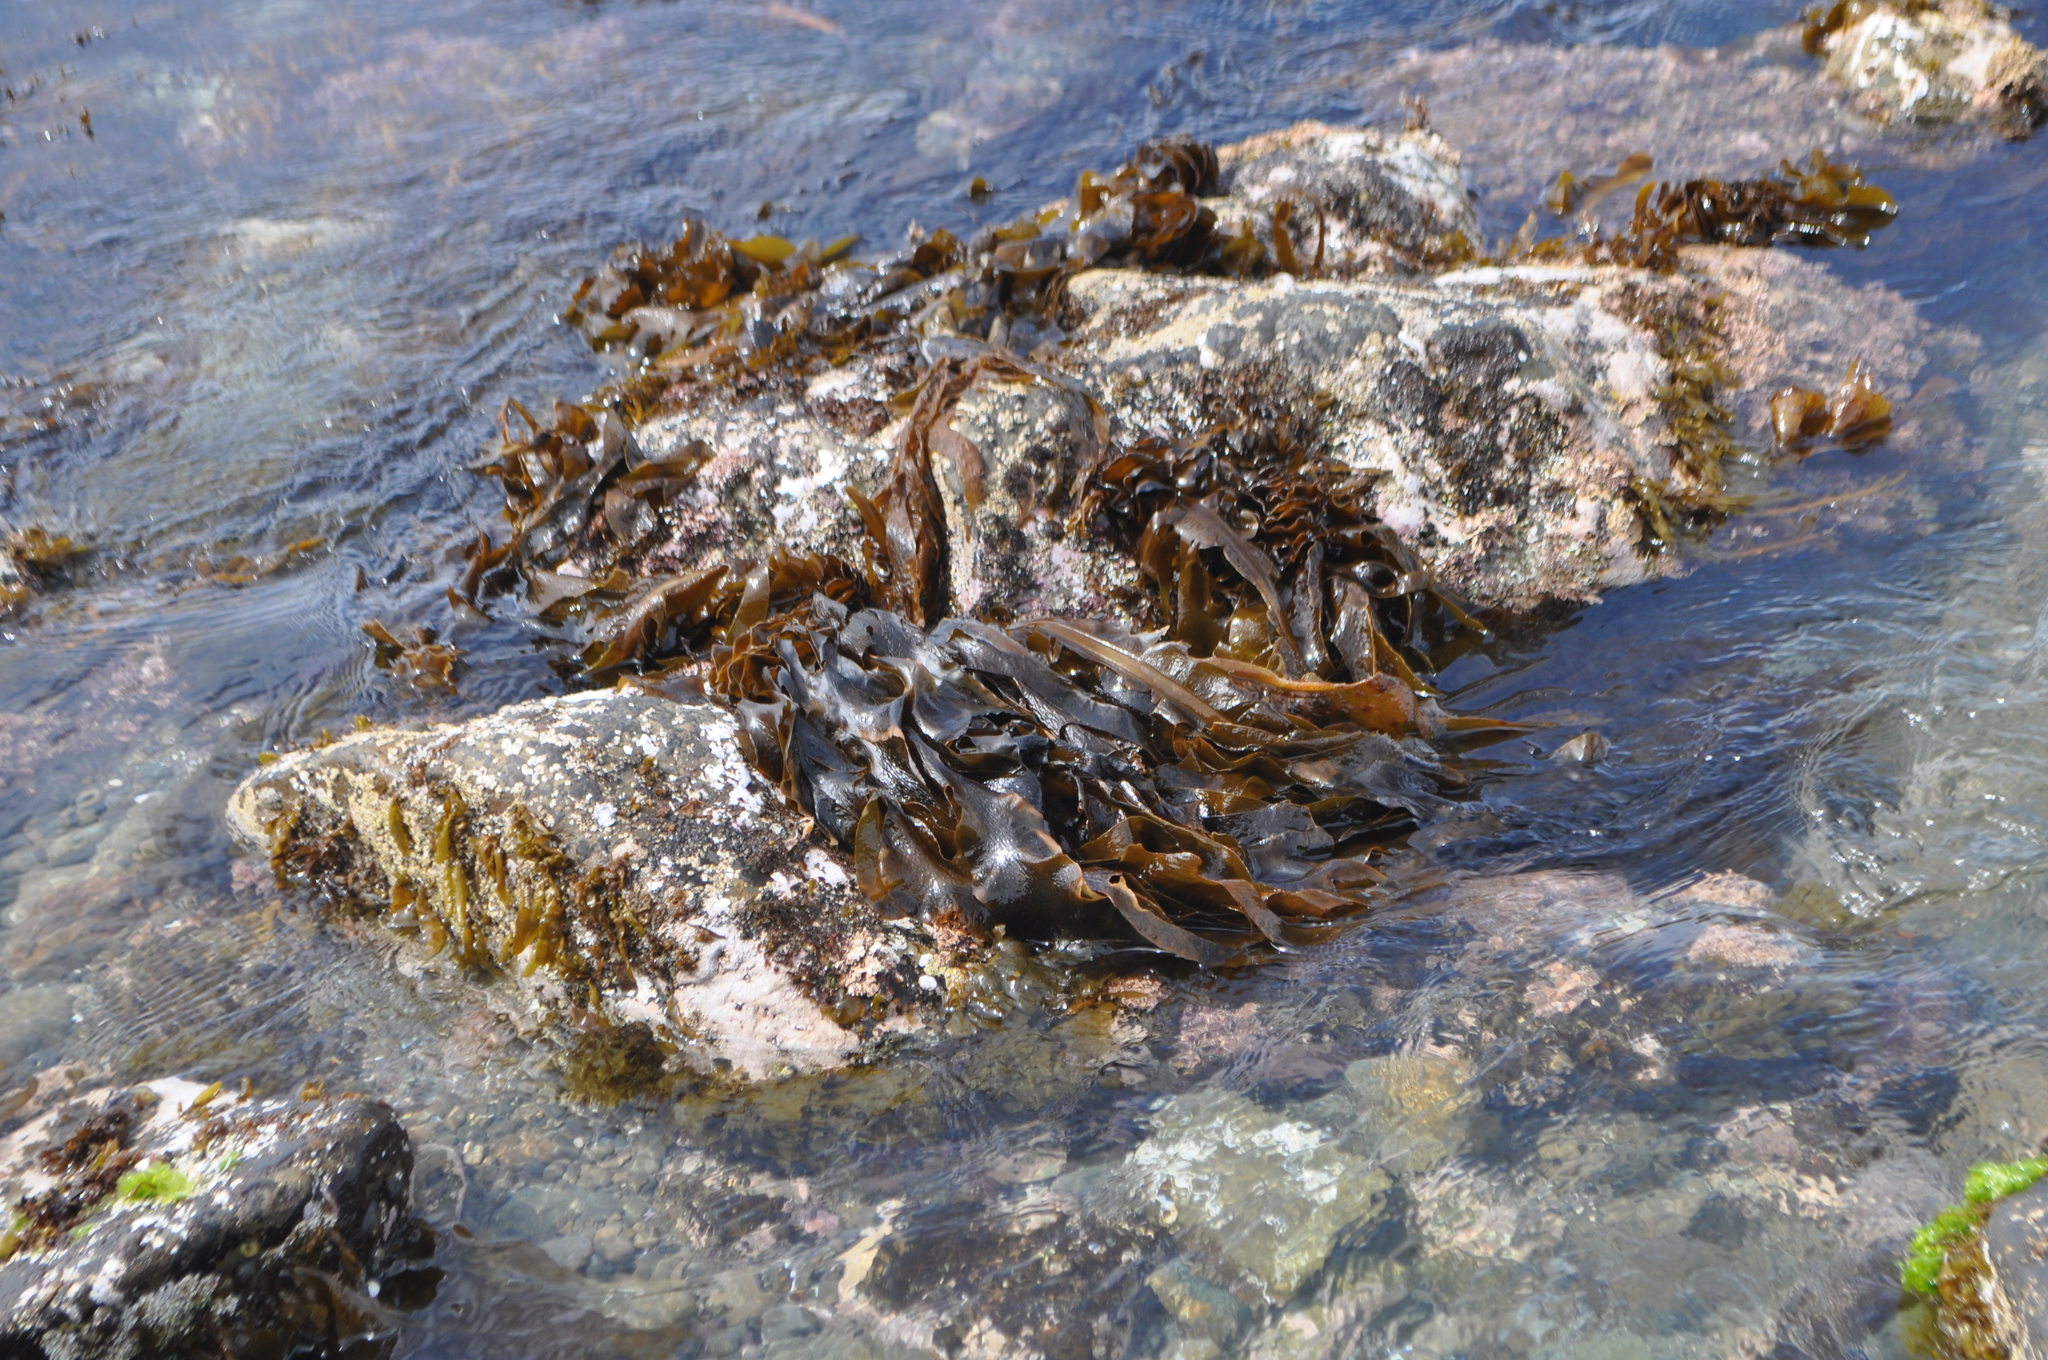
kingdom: Chromista
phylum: Ochrophyta
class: Phaeophyceae
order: Laminariales
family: Alariaceae
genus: Undaria
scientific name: Undaria pinnatifida
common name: Asian kelp
